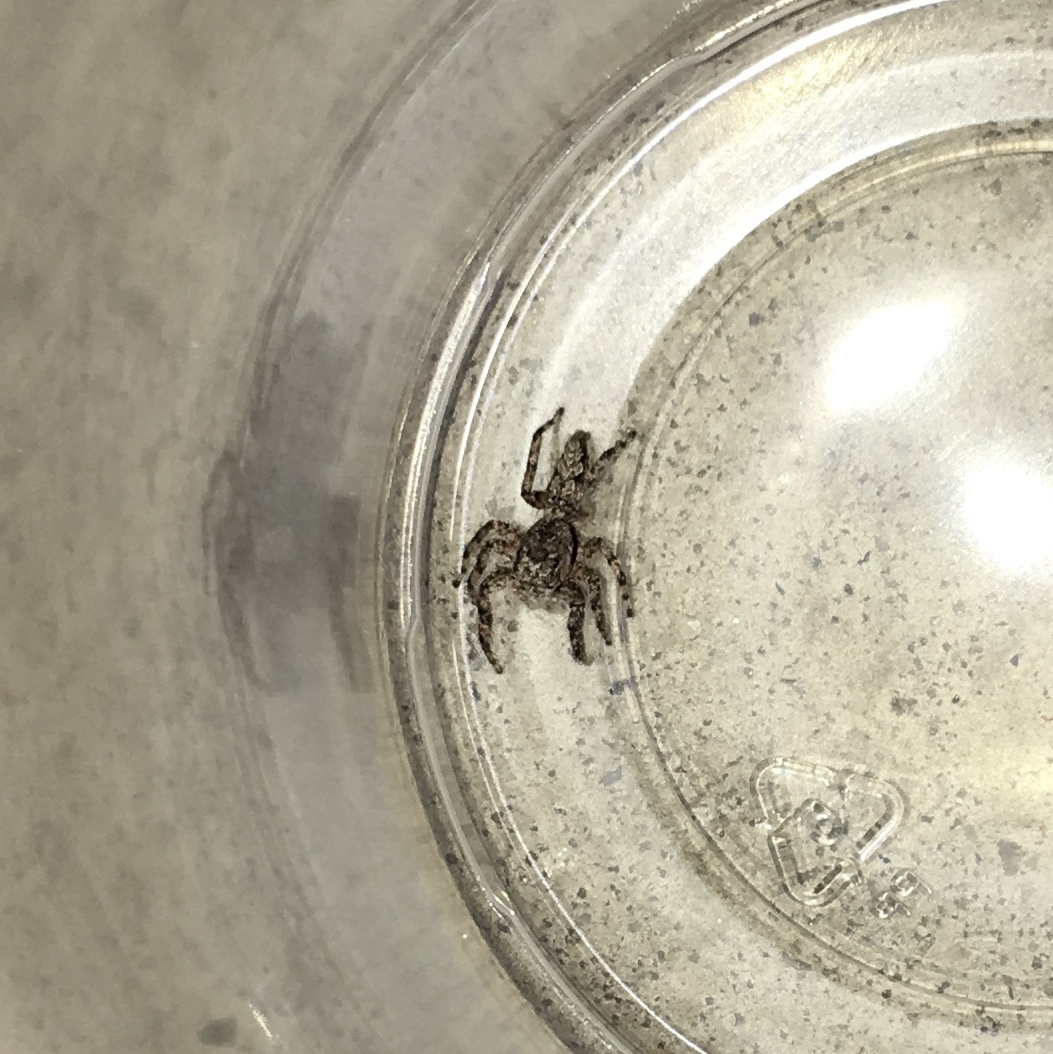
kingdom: Animalia
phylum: Arthropoda
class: Arachnida
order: Araneae
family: Salticidae
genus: Platycryptus
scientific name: Platycryptus undatus
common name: Tan jumping spider
